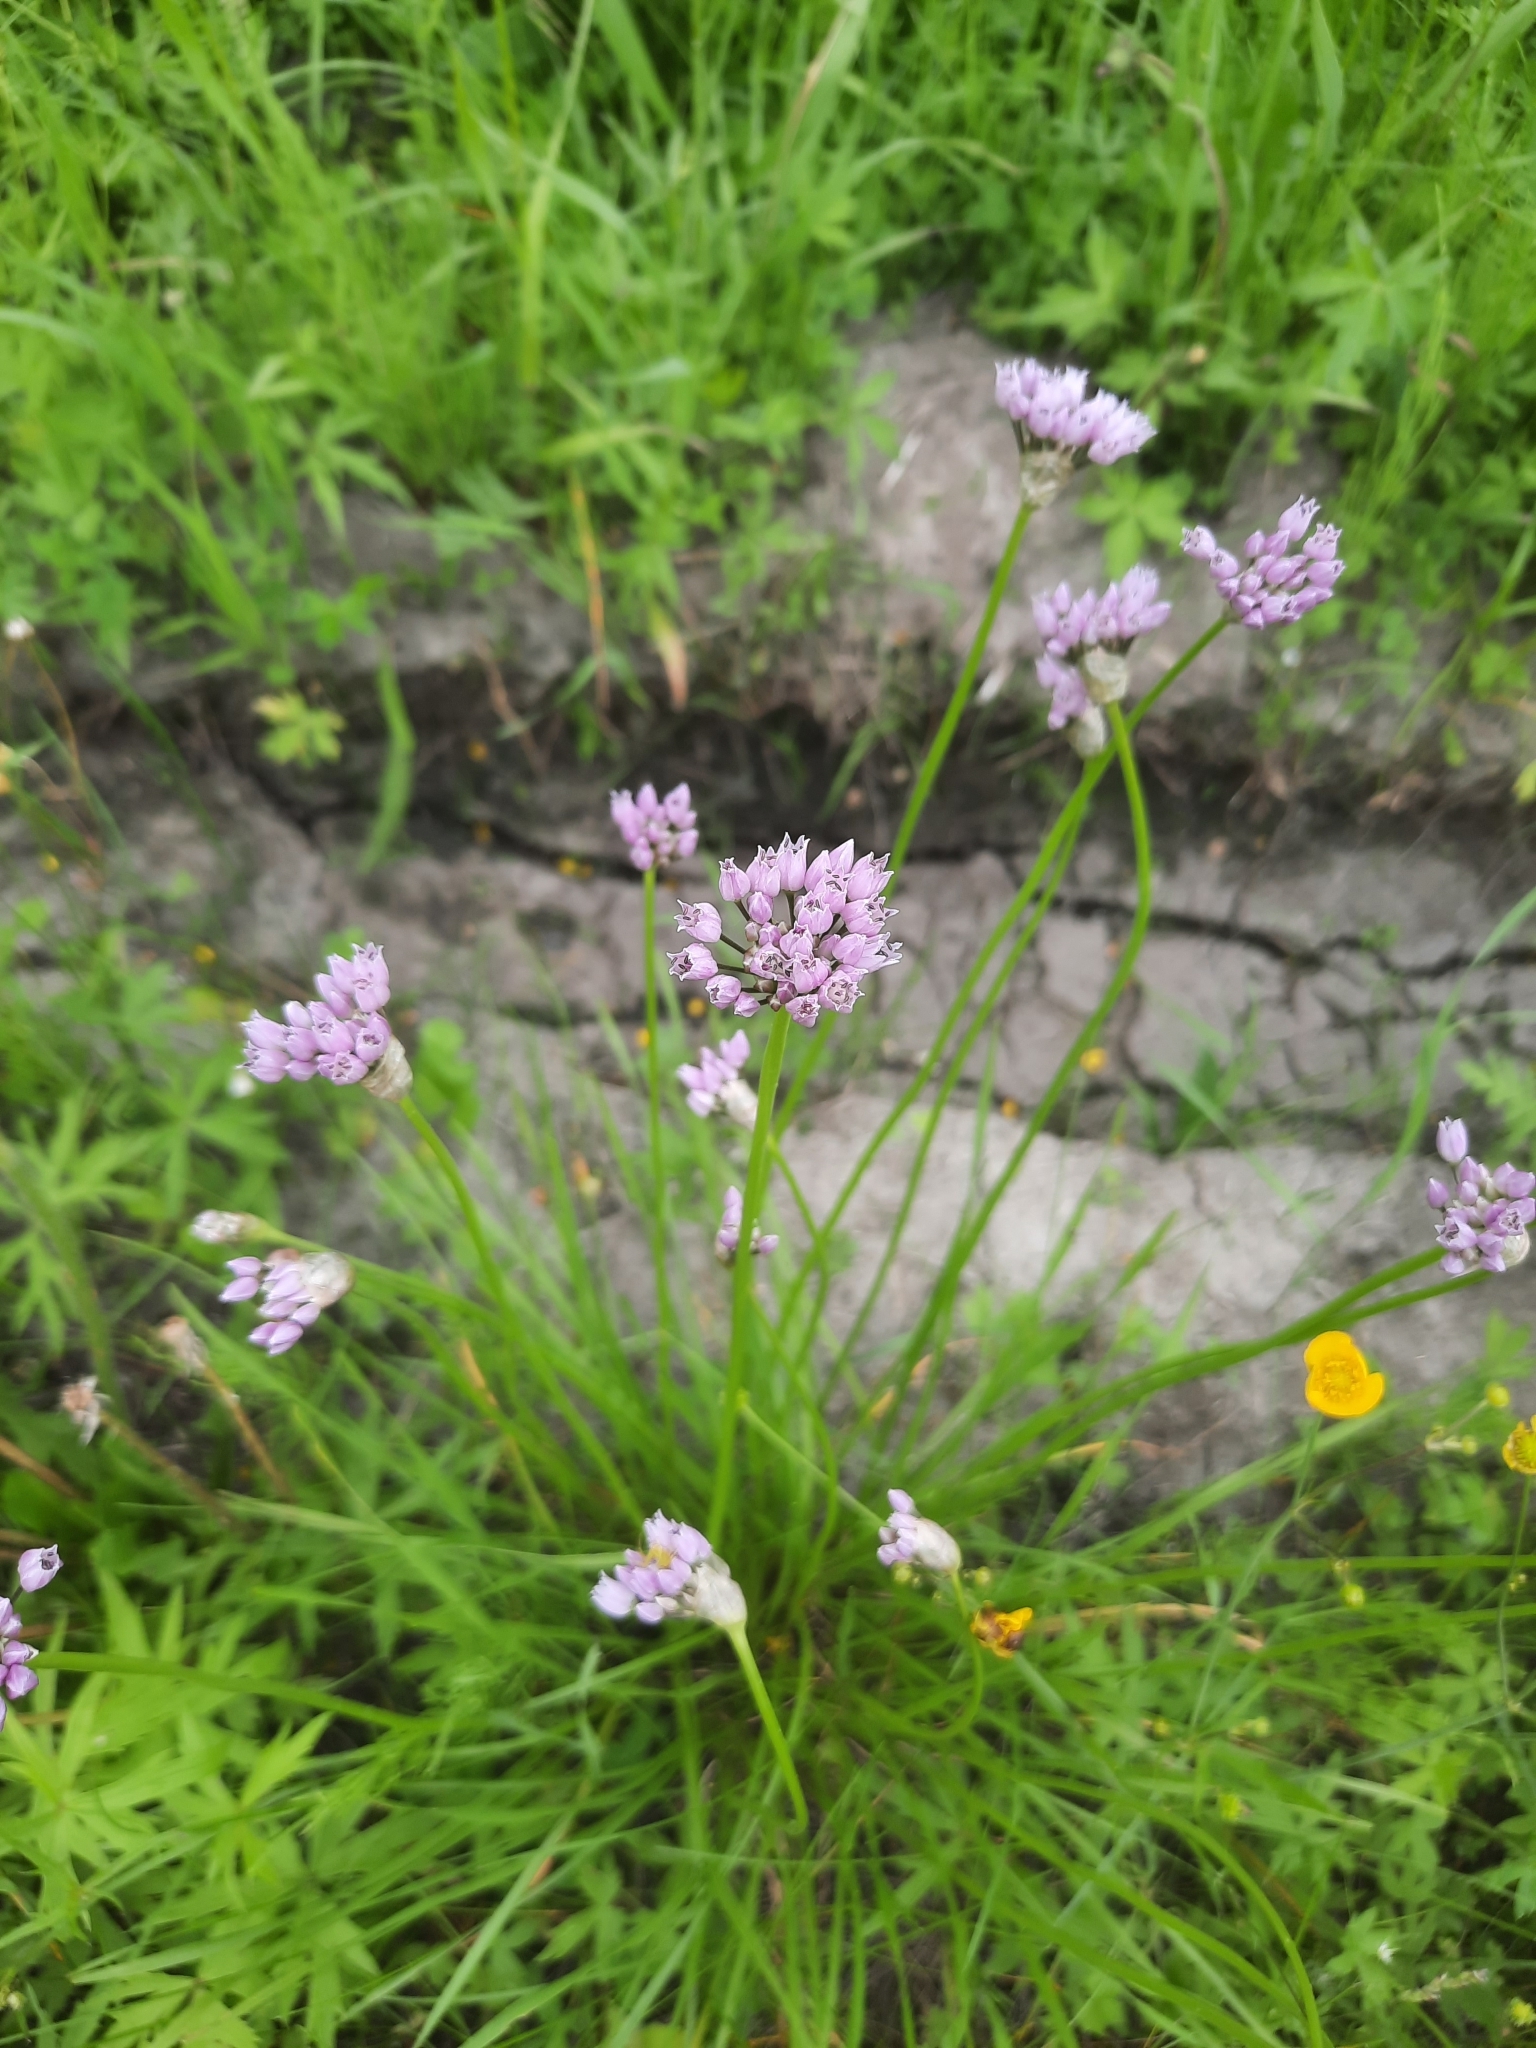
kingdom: Plantae
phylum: Tracheophyta
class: Liliopsida
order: Asparagales
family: Amaryllidaceae
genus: Allium
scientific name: Allium angulosum
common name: Mouse garlic
